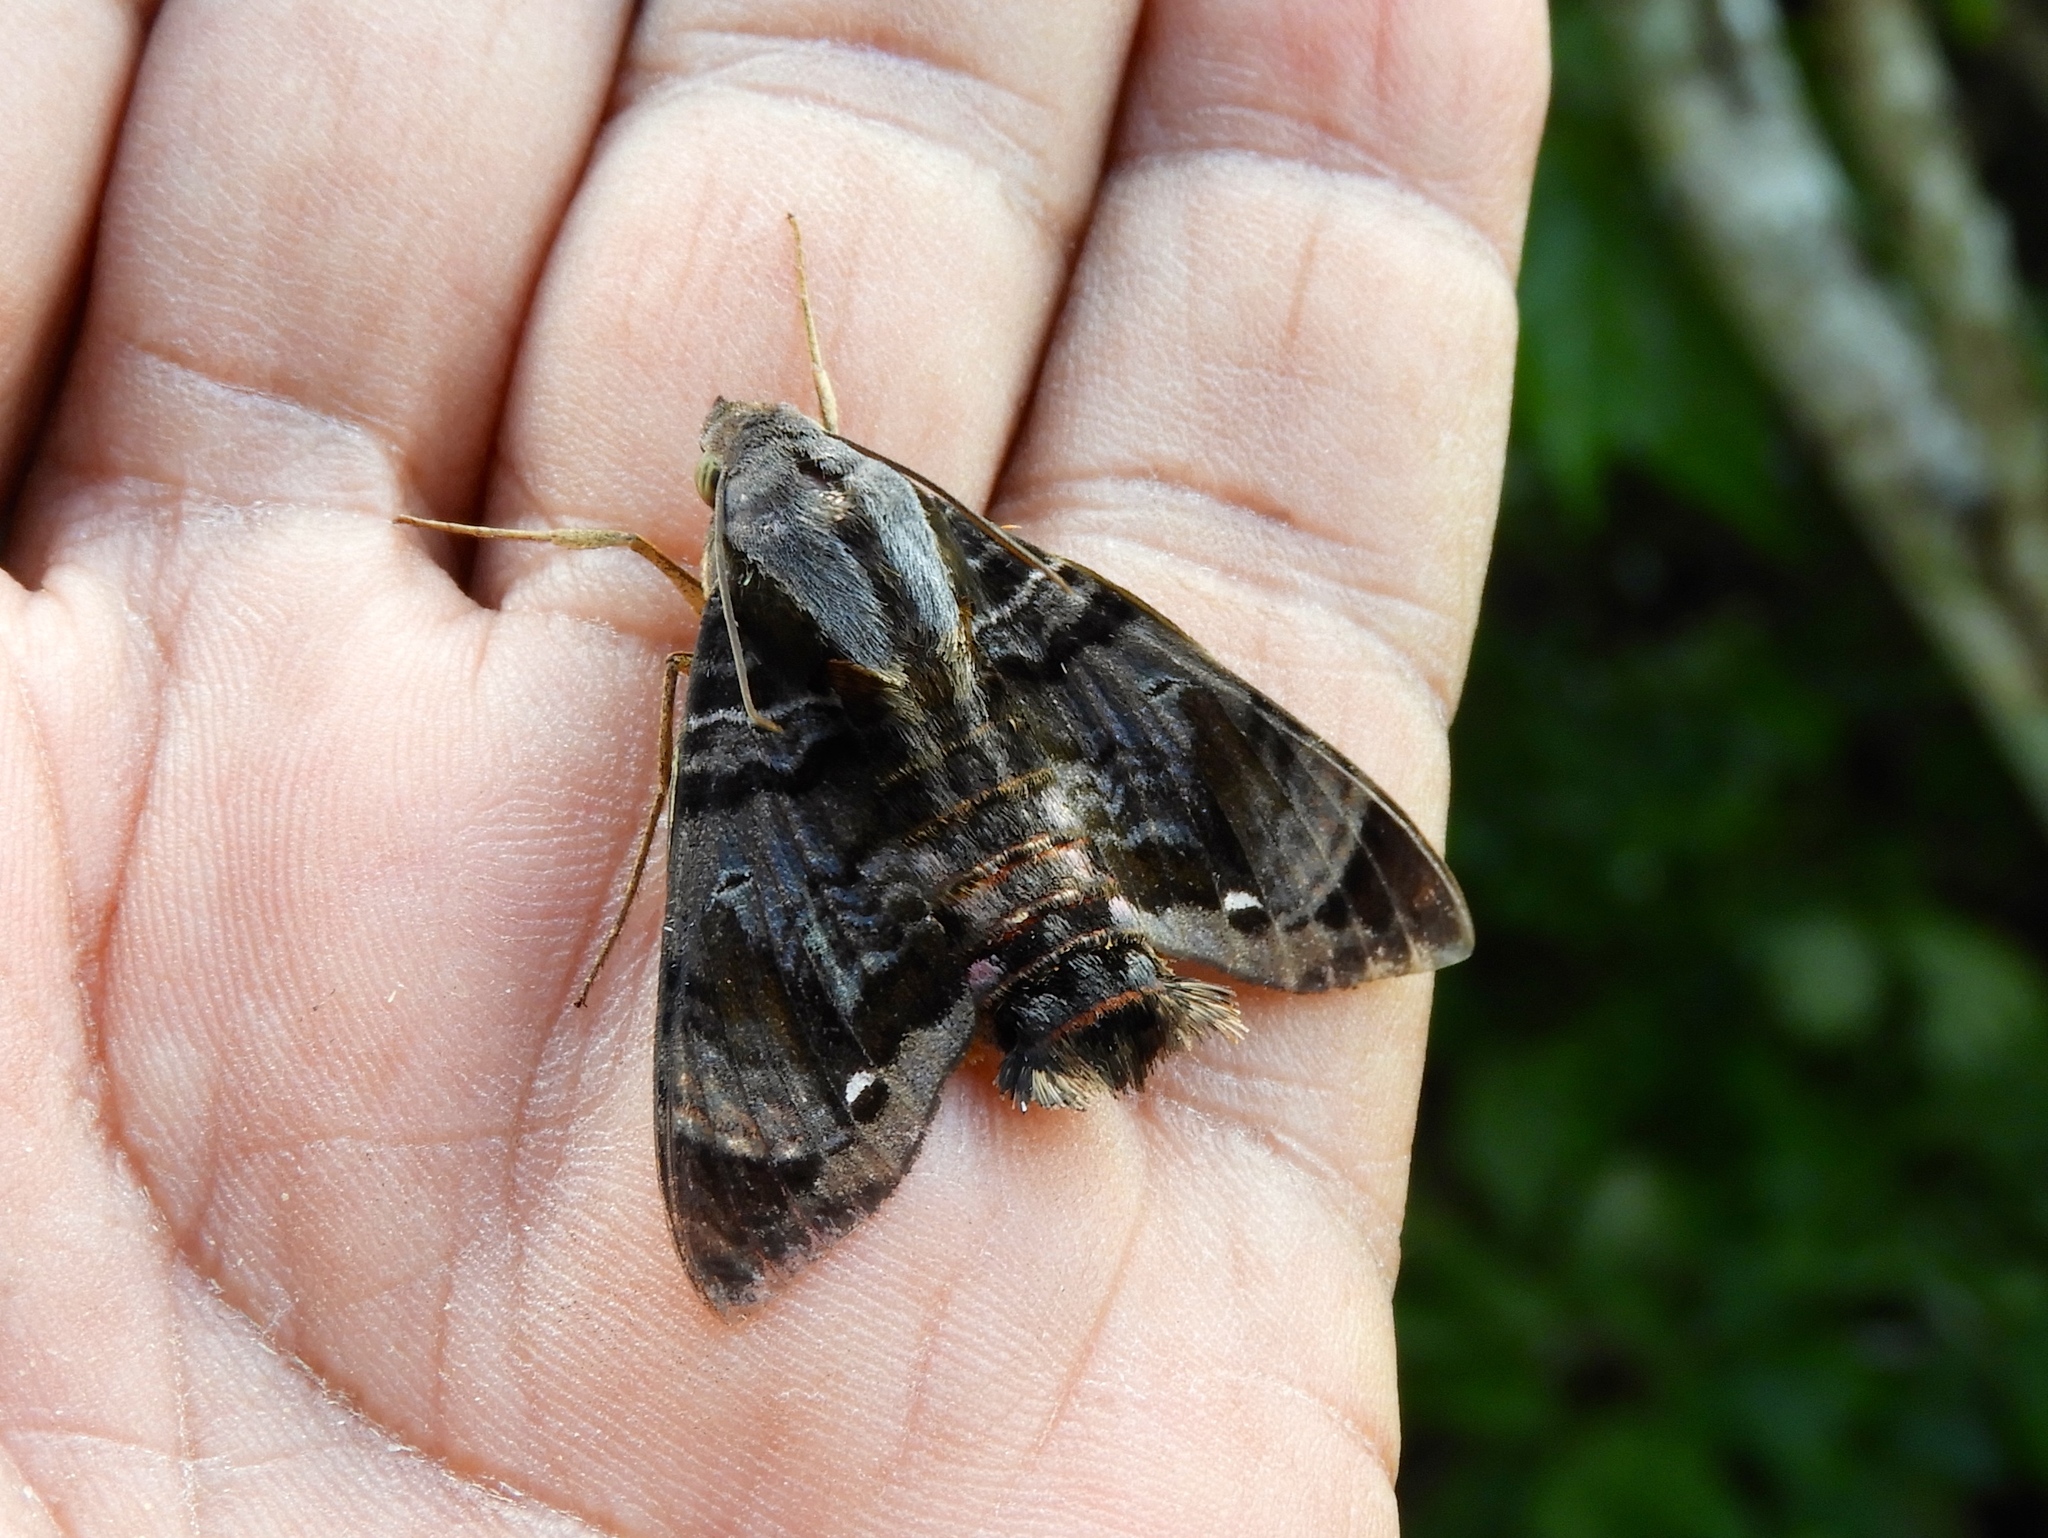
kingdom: Animalia
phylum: Arthropoda
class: Insecta
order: Lepidoptera
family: Sphingidae
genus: Eupyrrhoglossum
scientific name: Eupyrrhoglossum sagra
